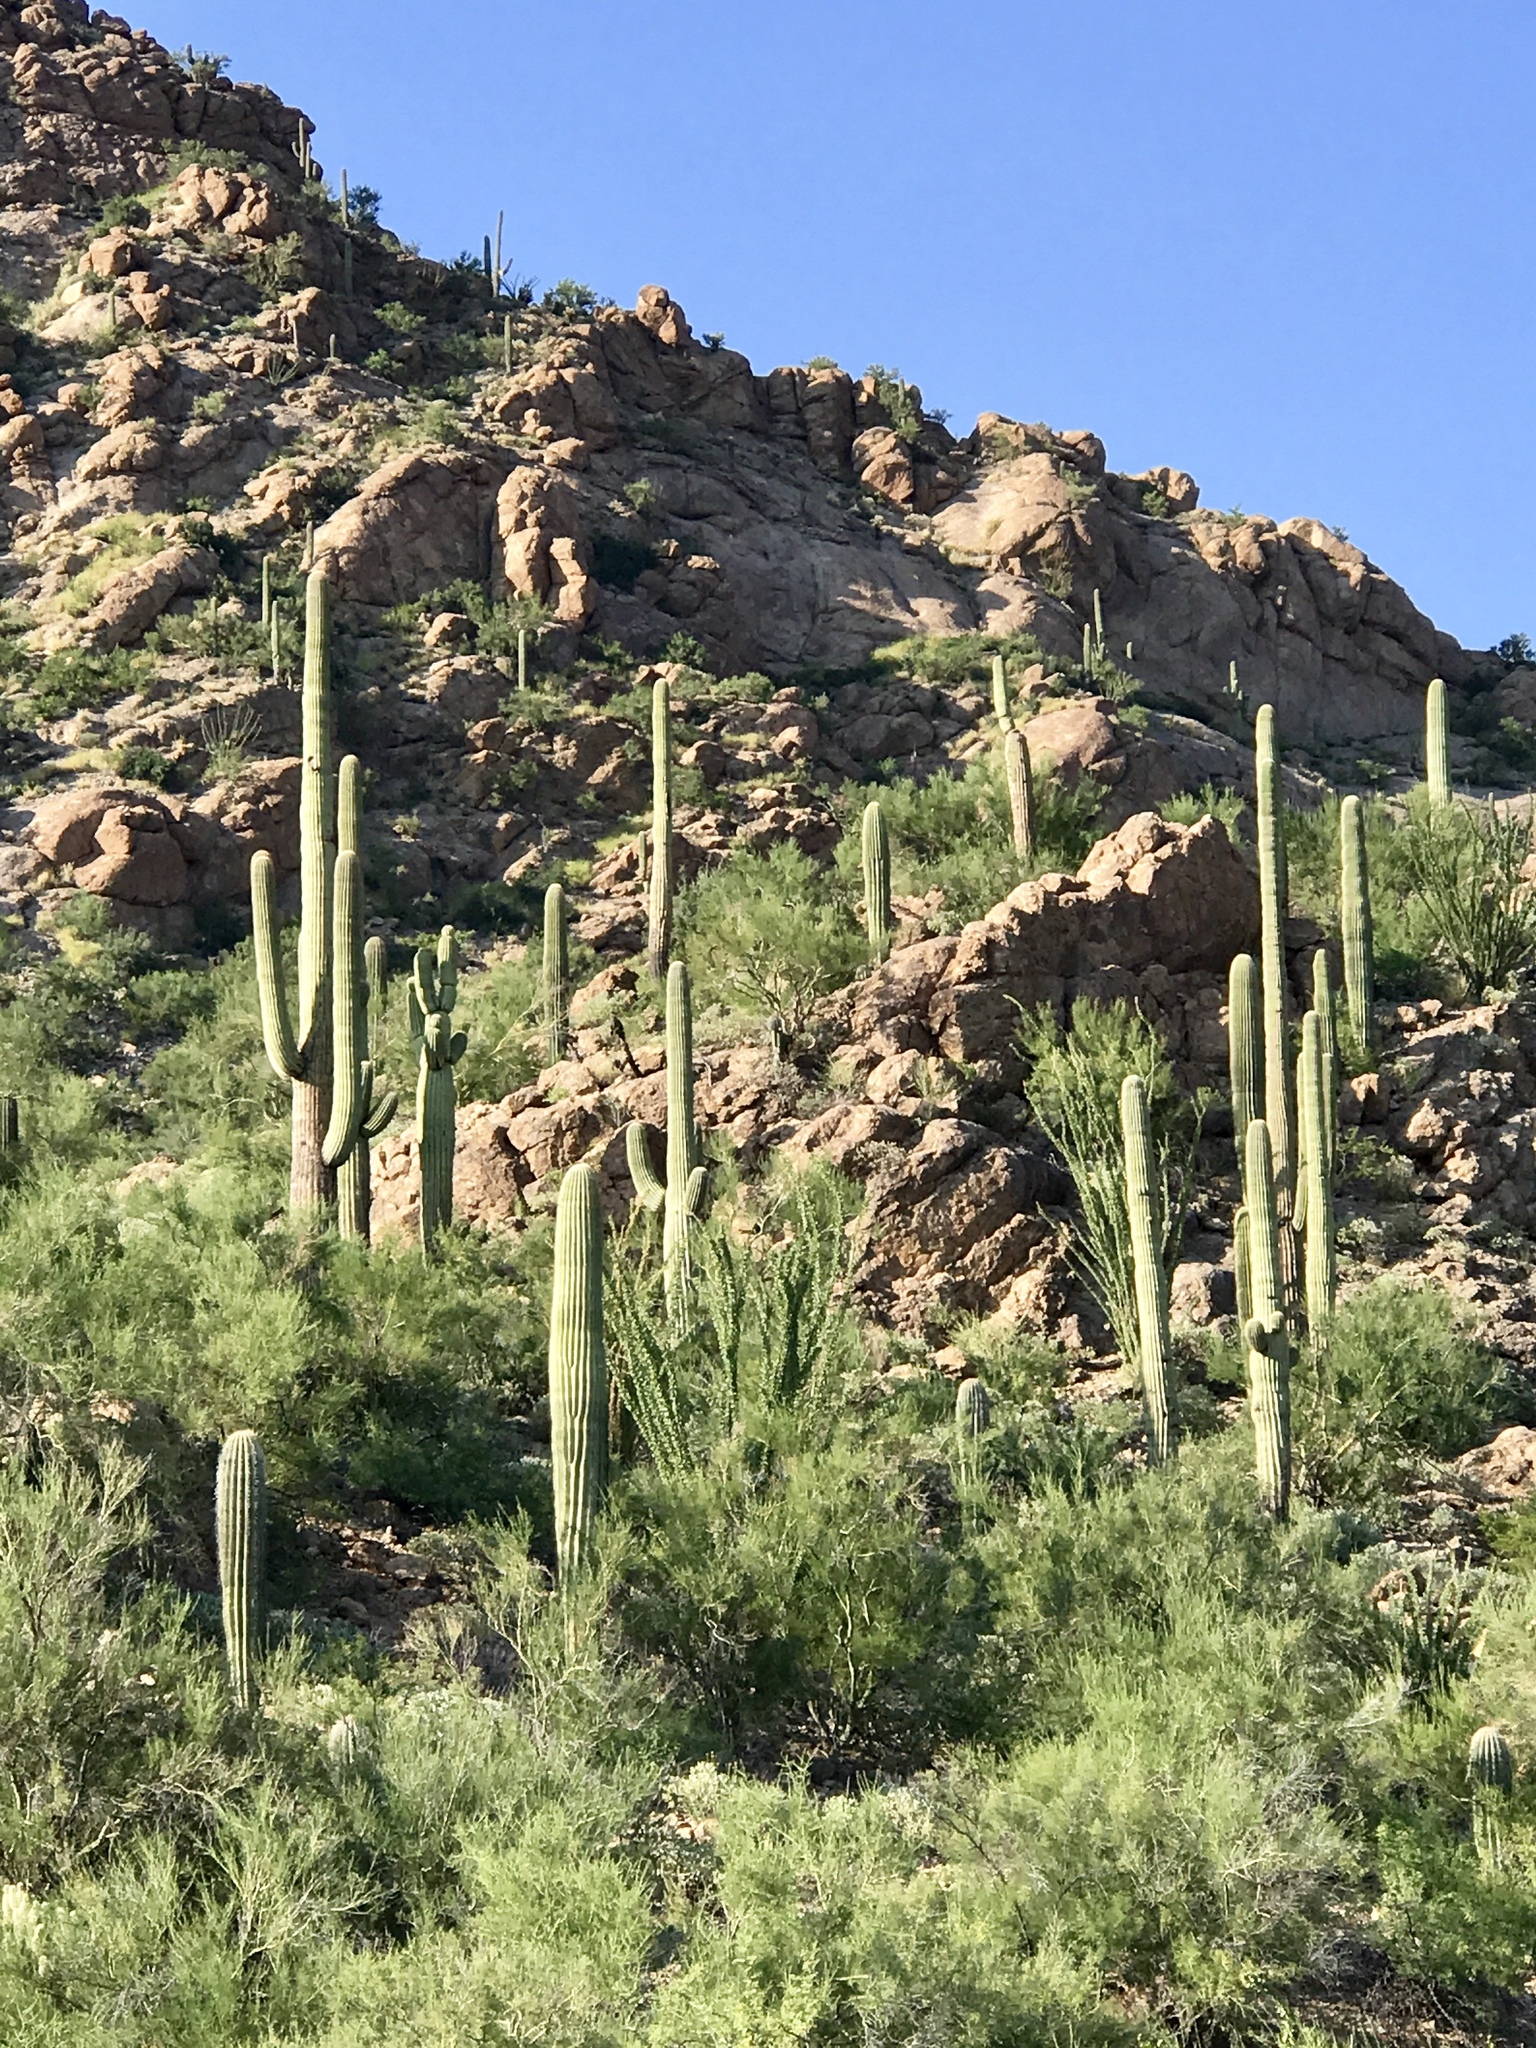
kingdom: Plantae
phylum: Tracheophyta
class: Magnoliopsida
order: Caryophyllales
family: Cactaceae
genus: Carnegiea
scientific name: Carnegiea gigantea
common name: Saguaro
